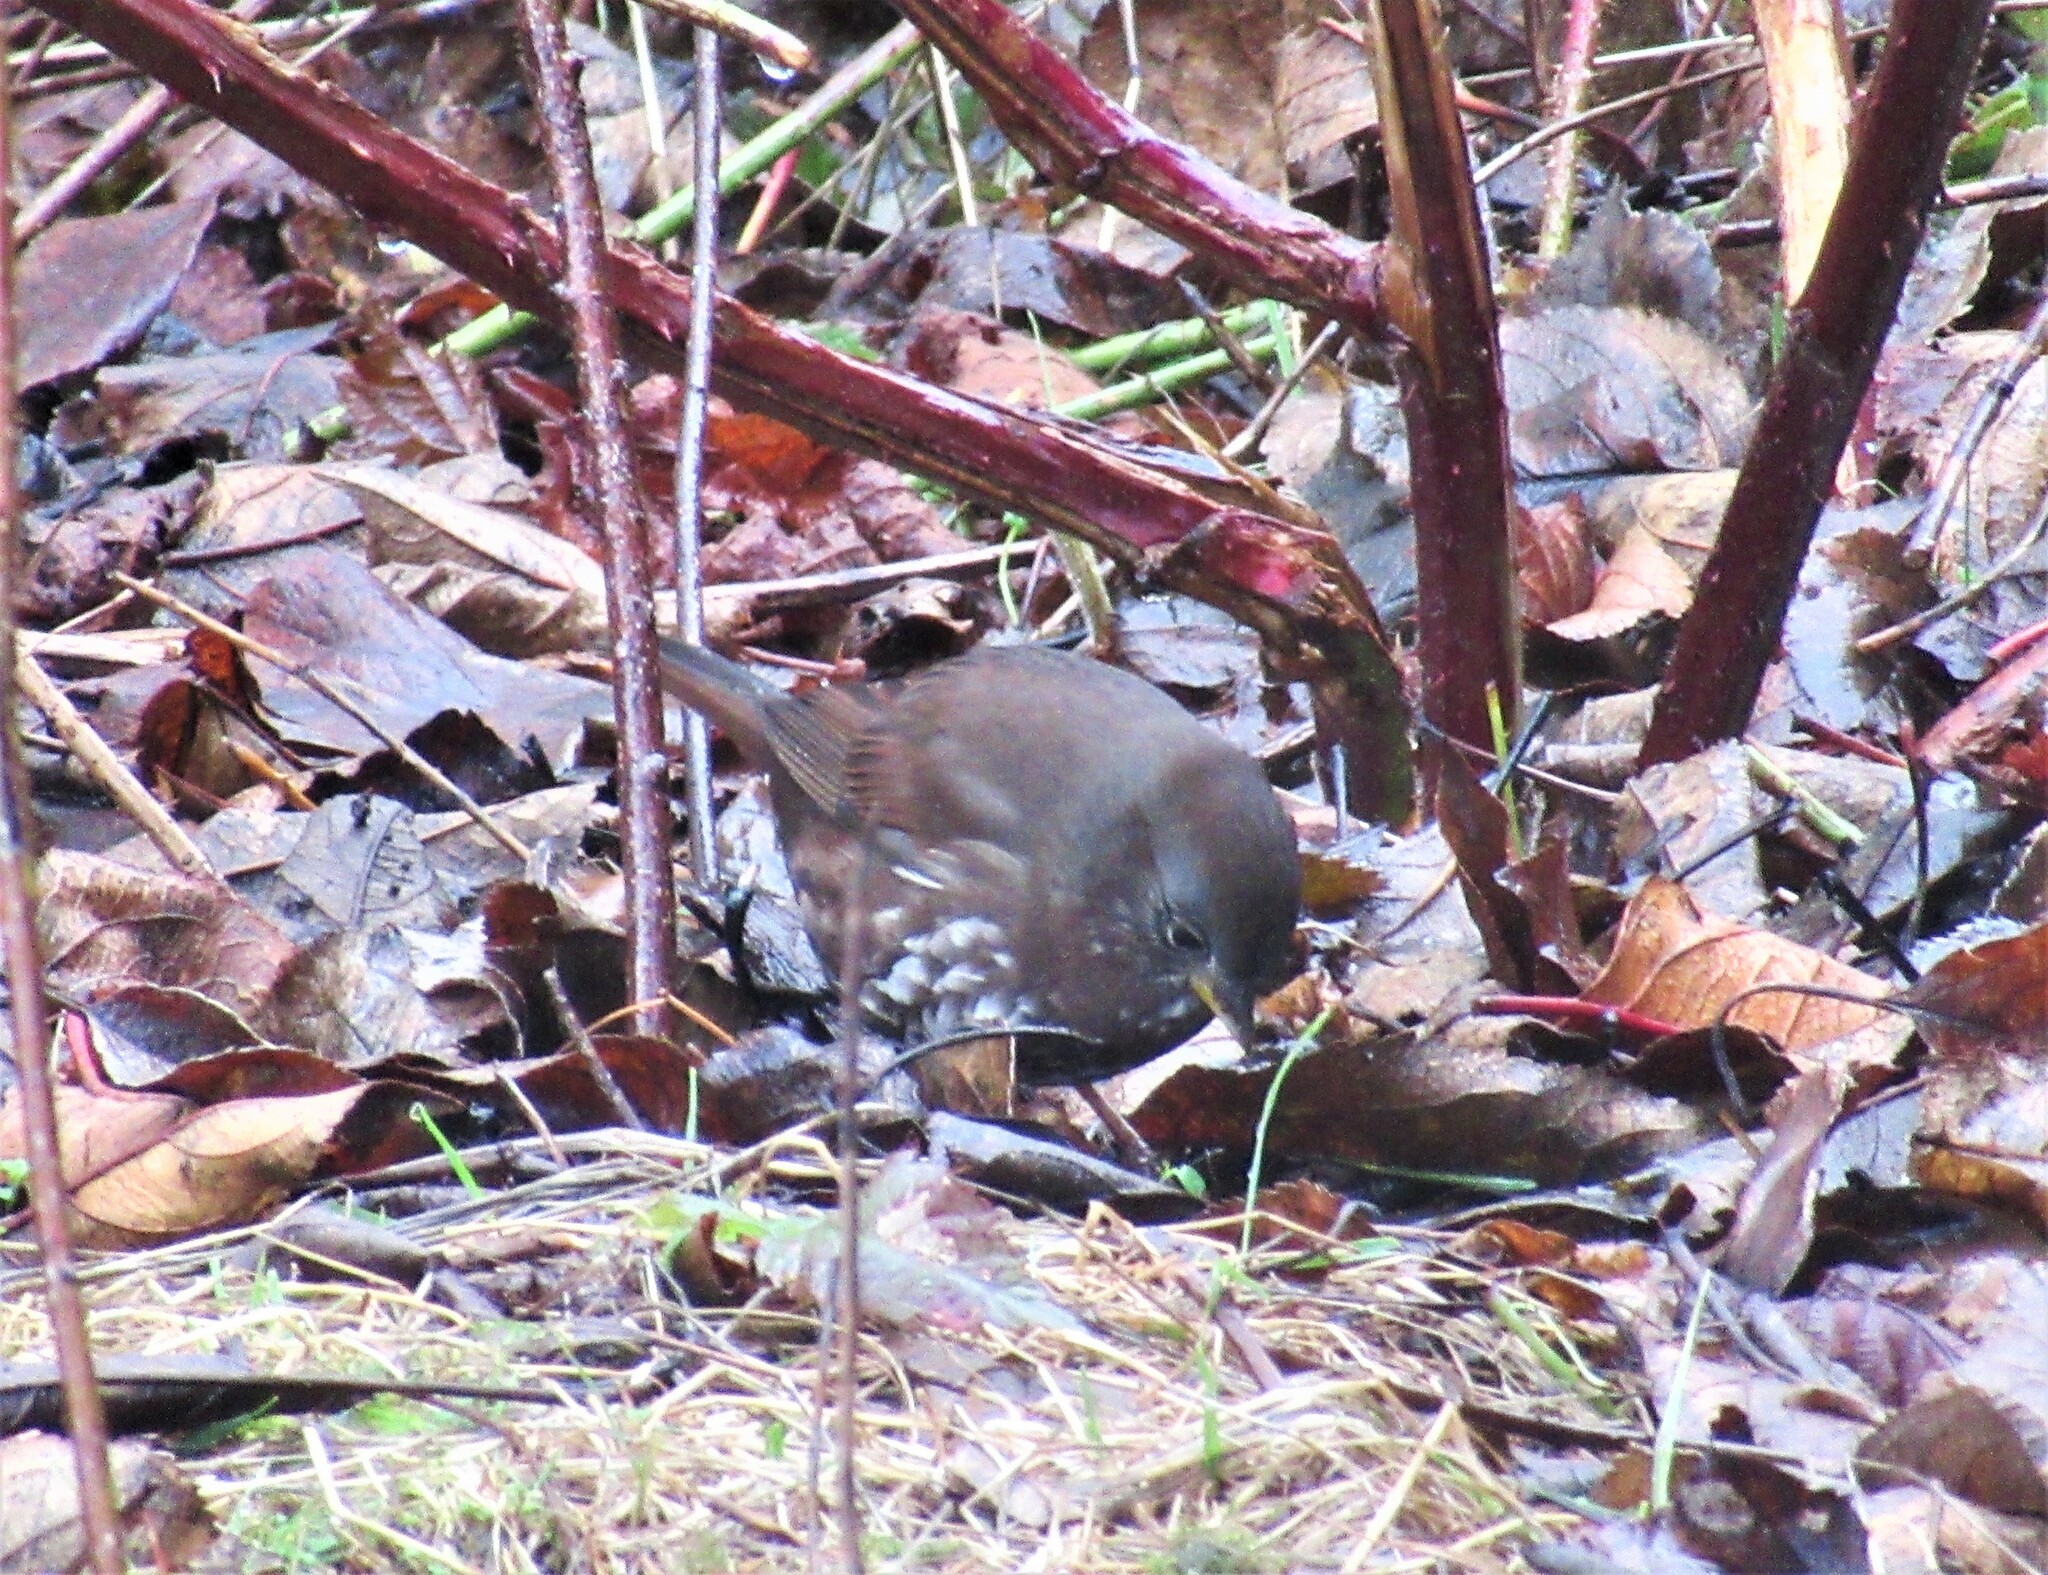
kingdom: Animalia
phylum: Chordata
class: Aves
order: Passeriformes
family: Passerellidae
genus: Passerella
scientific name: Passerella iliaca
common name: Fox sparrow
